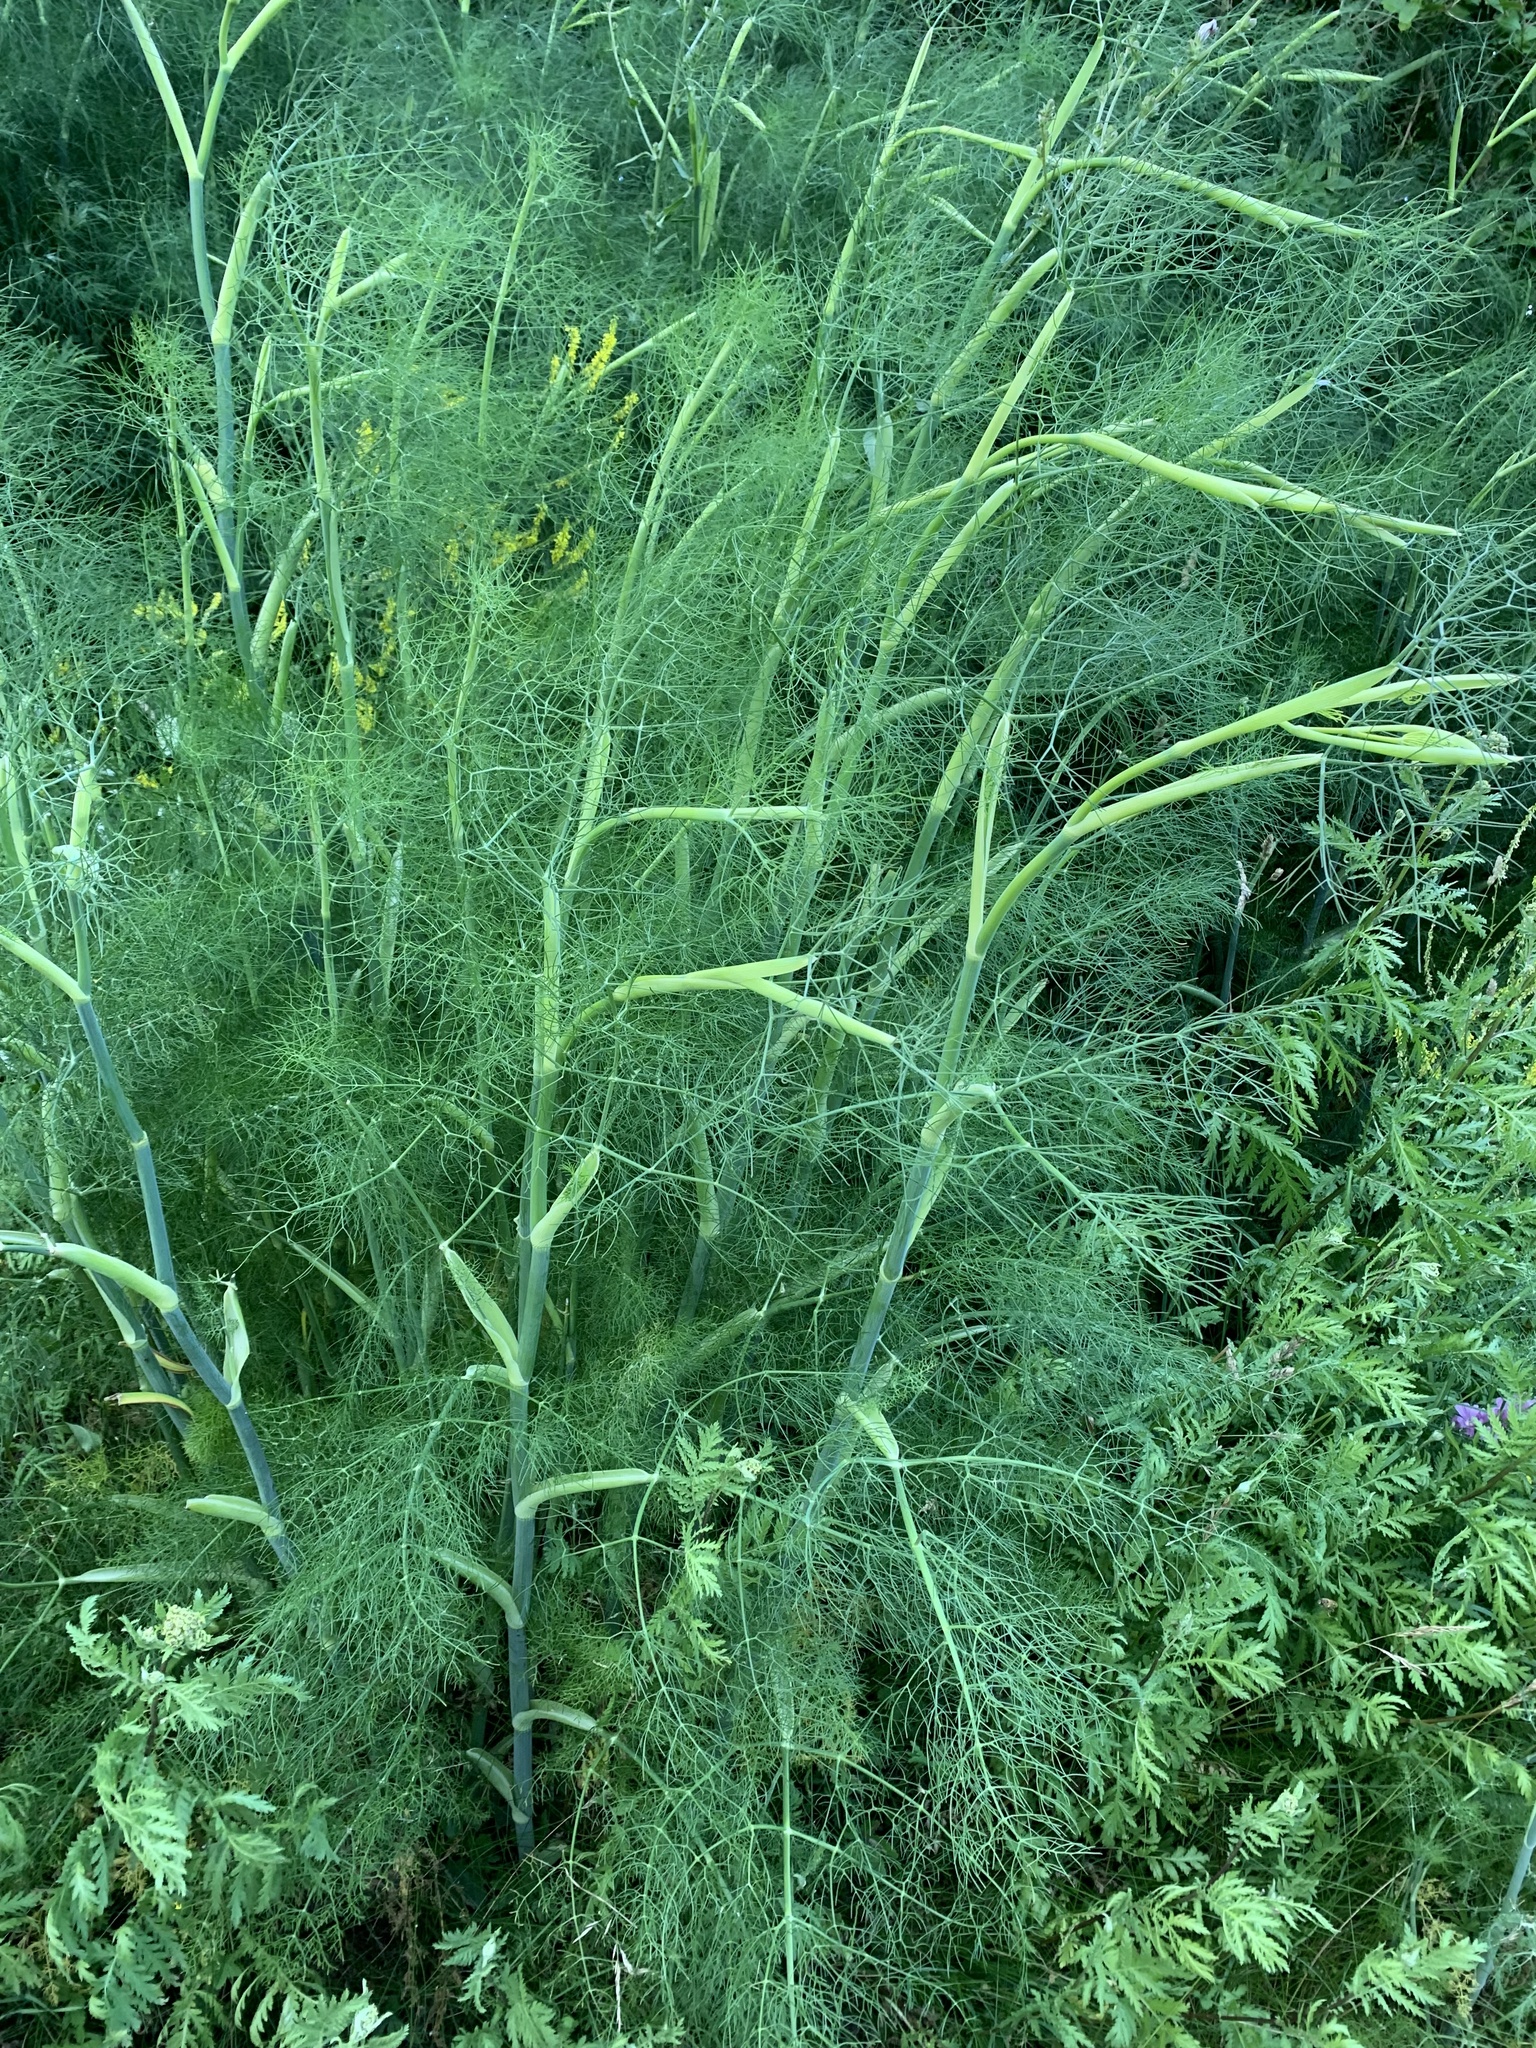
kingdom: Plantae
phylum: Tracheophyta
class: Magnoliopsida
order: Apiales
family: Apiaceae
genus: Foeniculum
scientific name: Foeniculum vulgare
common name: Fennel
